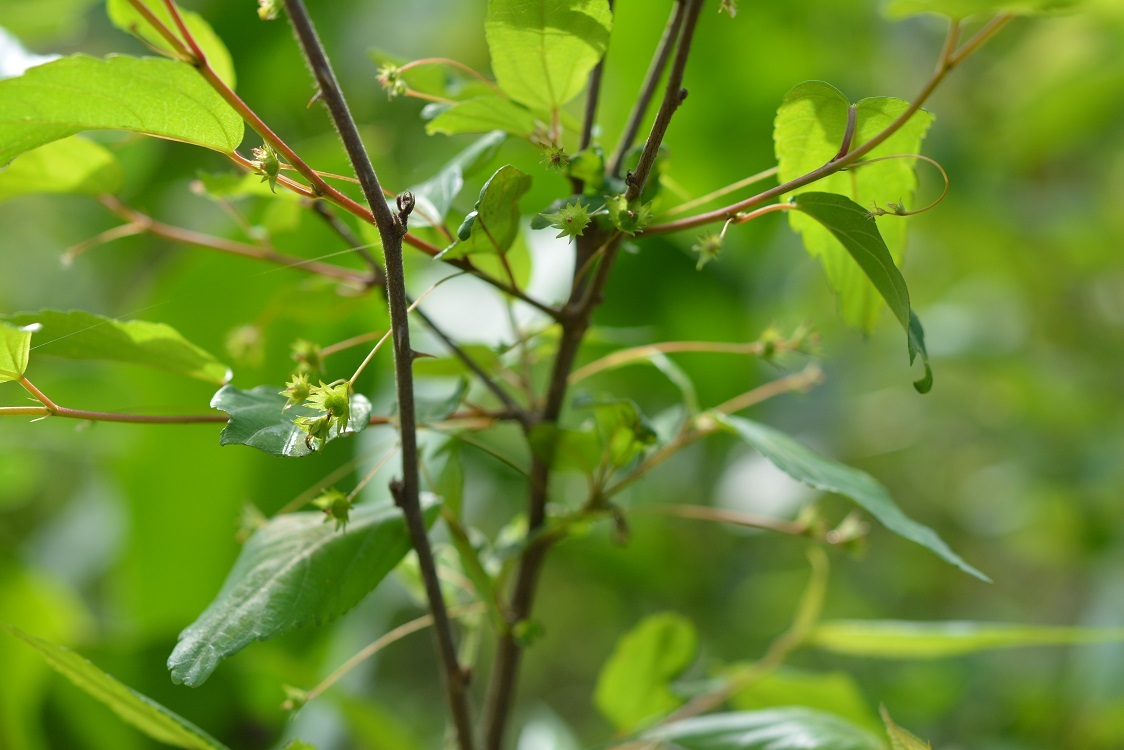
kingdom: Plantae
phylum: Tracheophyta
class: Magnoliopsida
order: Malpighiales
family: Euphorbiaceae
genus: Acalypha
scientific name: Acalypha leptopoda
